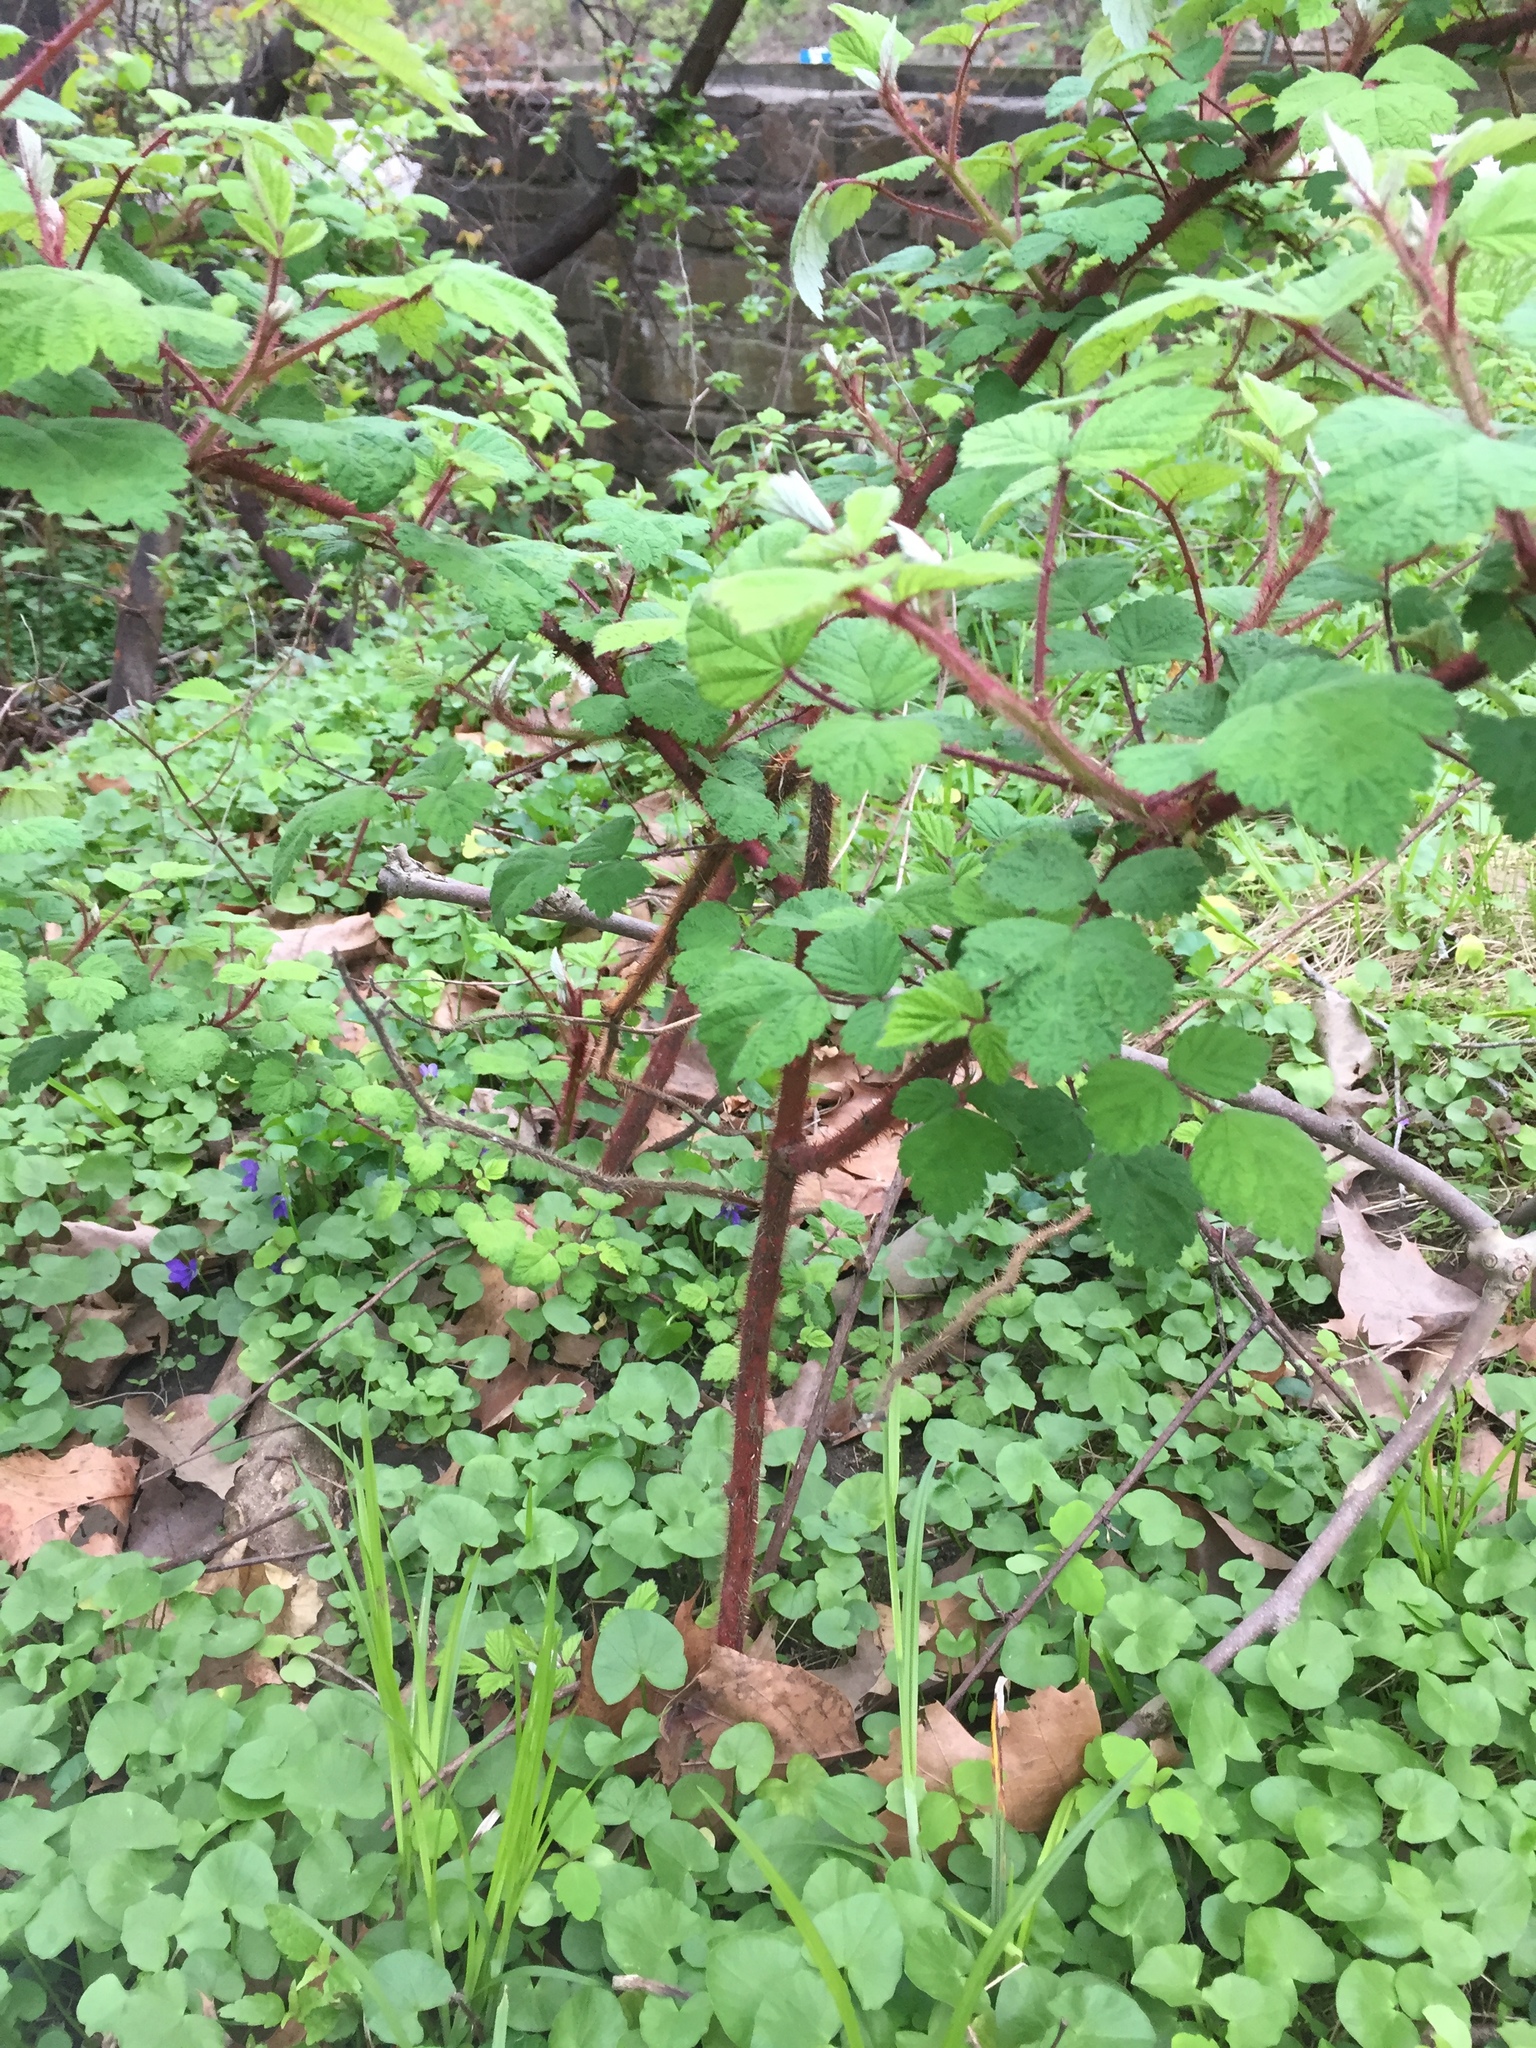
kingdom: Plantae
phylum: Tracheophyta
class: Magnoliopsida
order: Rosales
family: Rosaceae
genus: Rubus
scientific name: Rubus phoenicolasius
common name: Japanese wineberry
